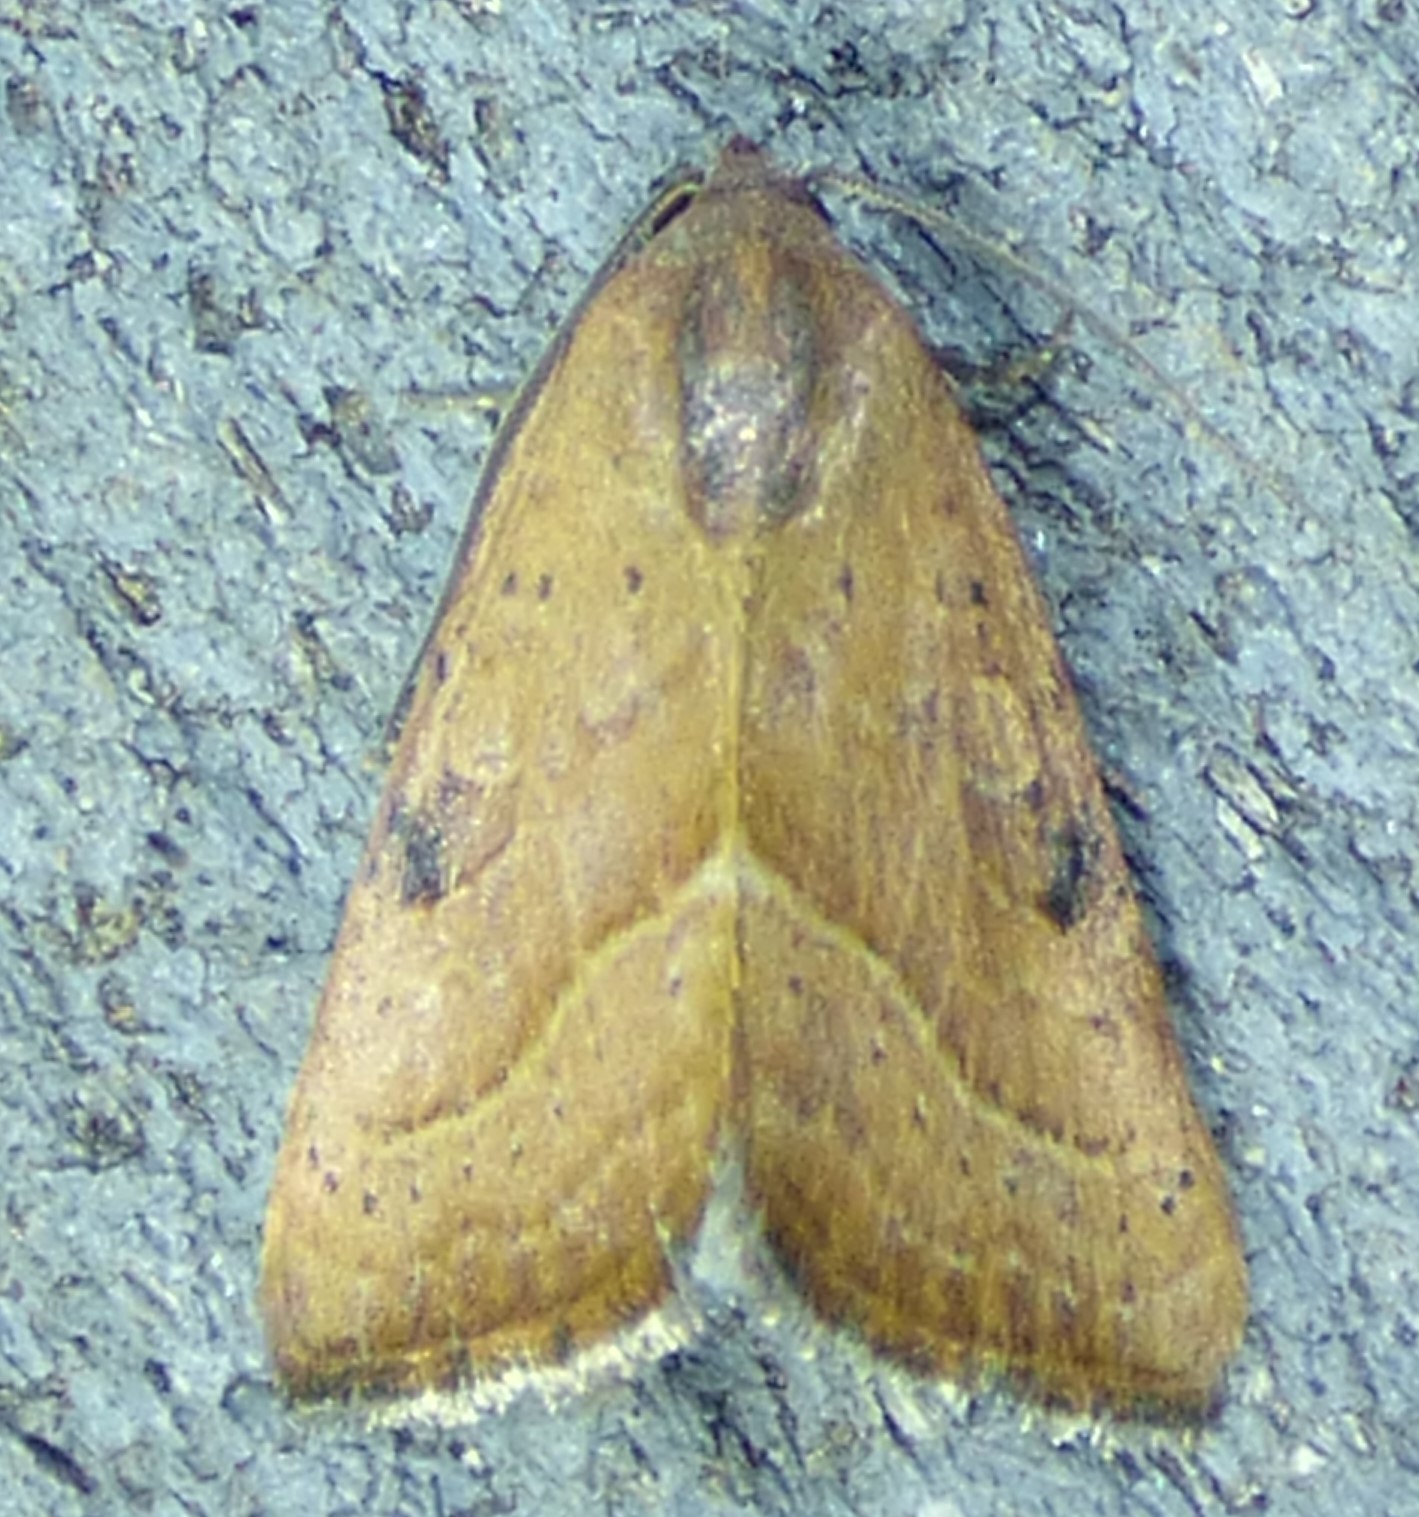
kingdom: Animalia
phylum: Arthropoda
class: Insecta
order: Lepidoptera
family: Noctuidae
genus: Galgula
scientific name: Galgula partita
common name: Wedgeling
